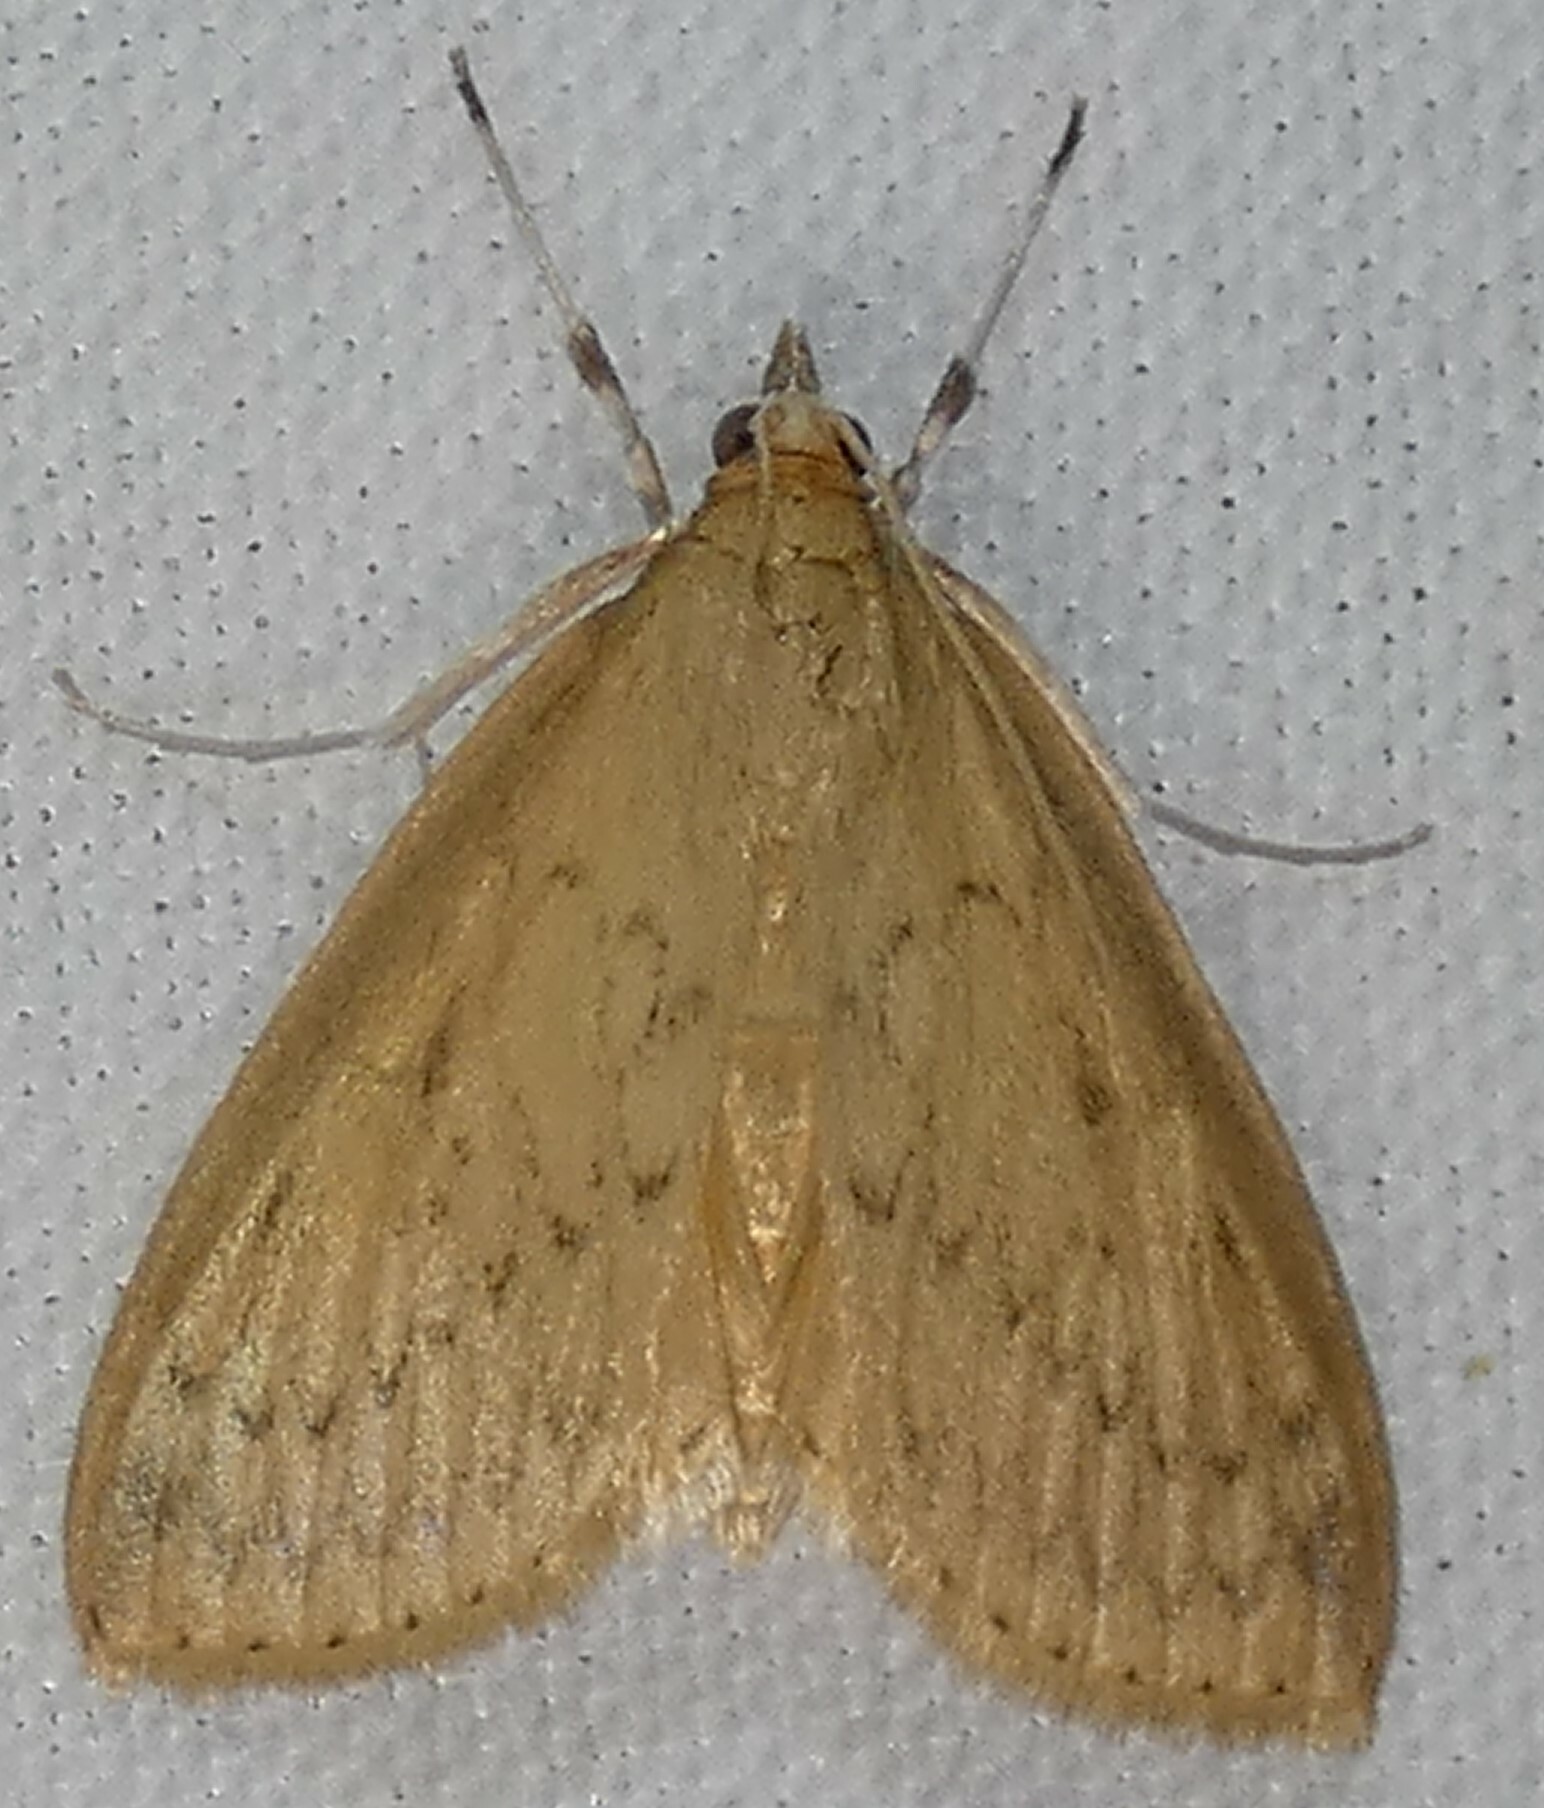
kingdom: Animalia
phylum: Arthropoda
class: Insecta
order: Lepidoptera
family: Crambidae
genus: Crocidophora
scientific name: Crocidophora pustuliferalis
